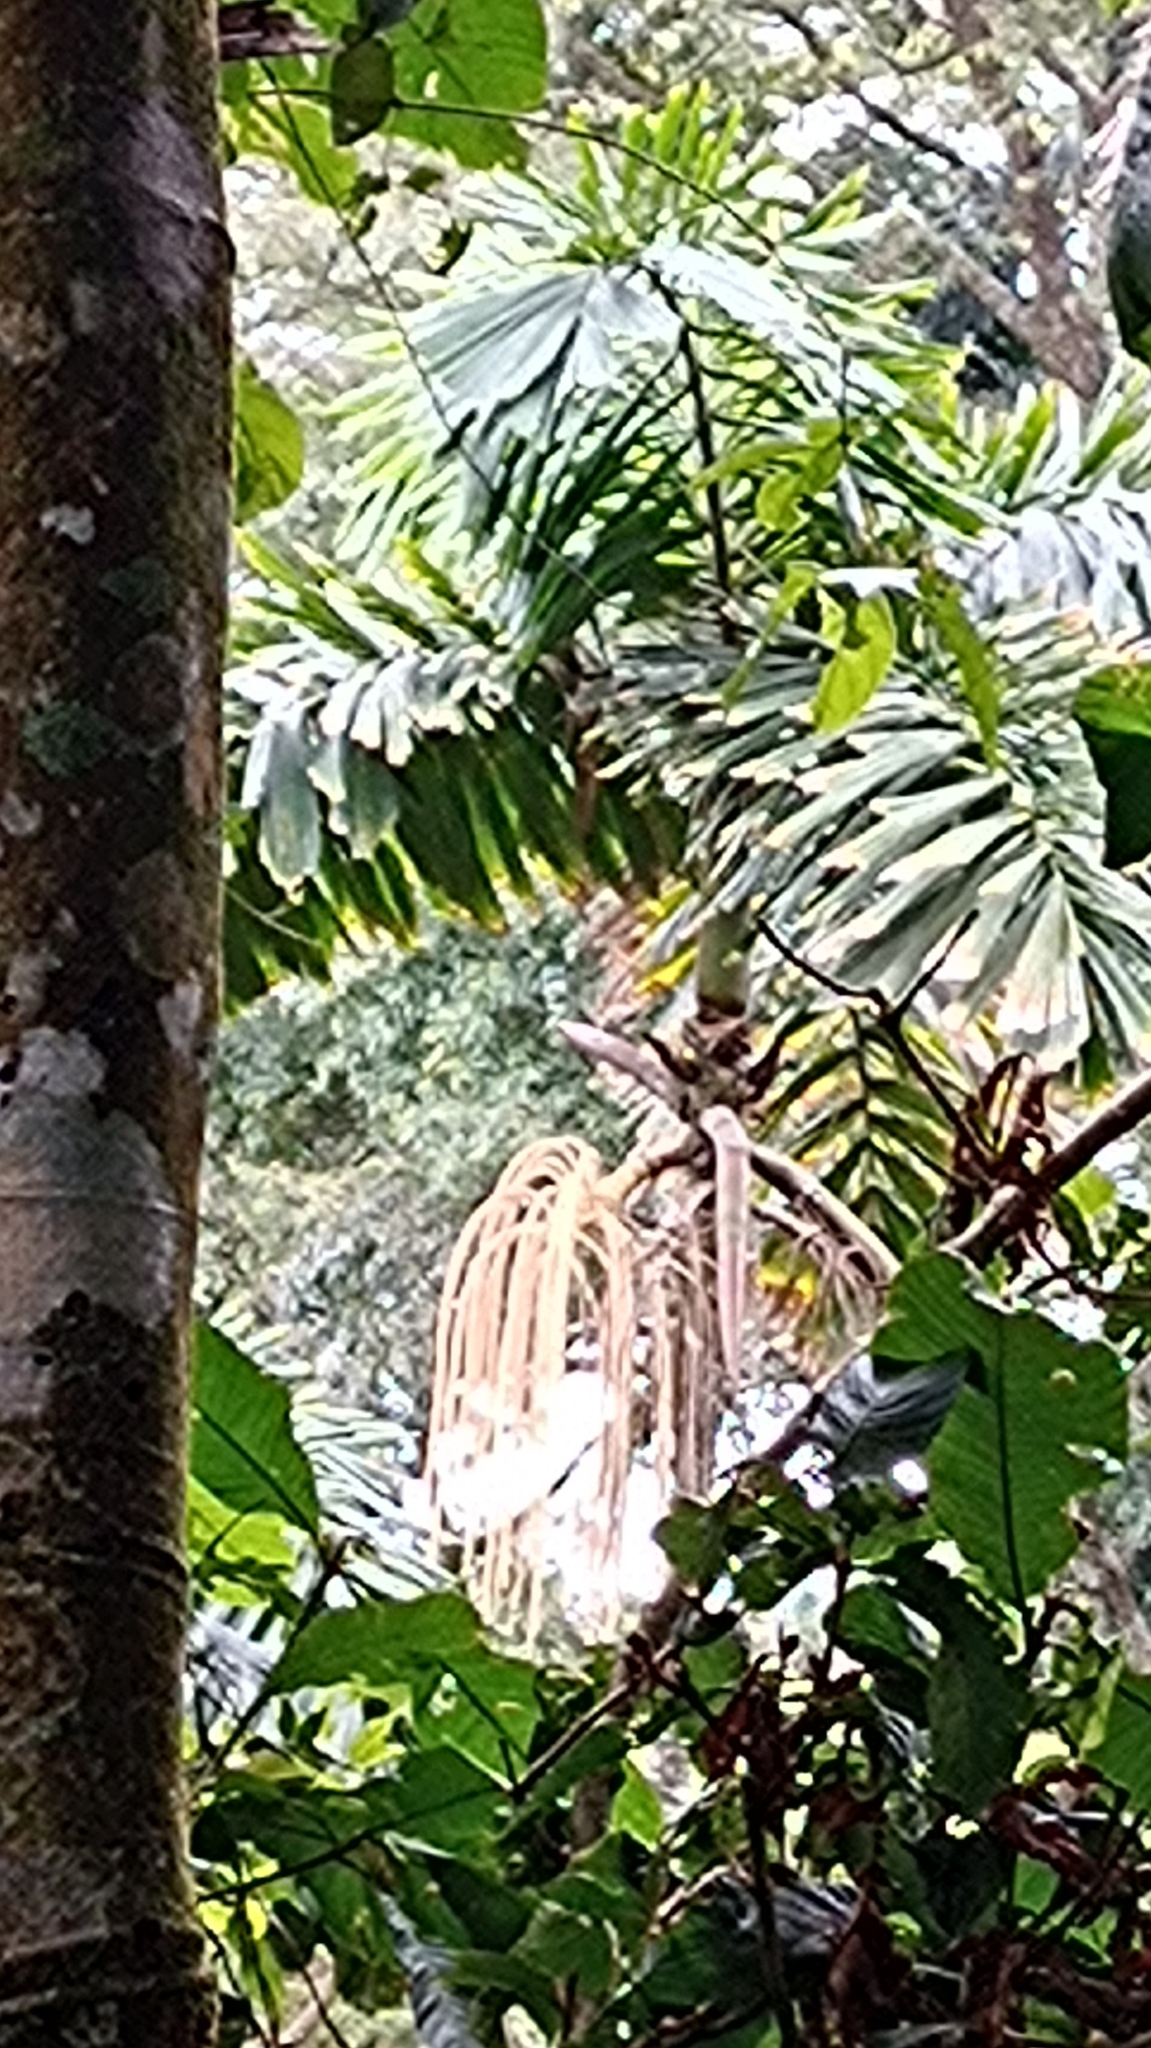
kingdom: Plantae
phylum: Tracheophyta
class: Liliopsida
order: Arecales
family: Arecaceae
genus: Iriartea
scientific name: Iriartea deltoidea
